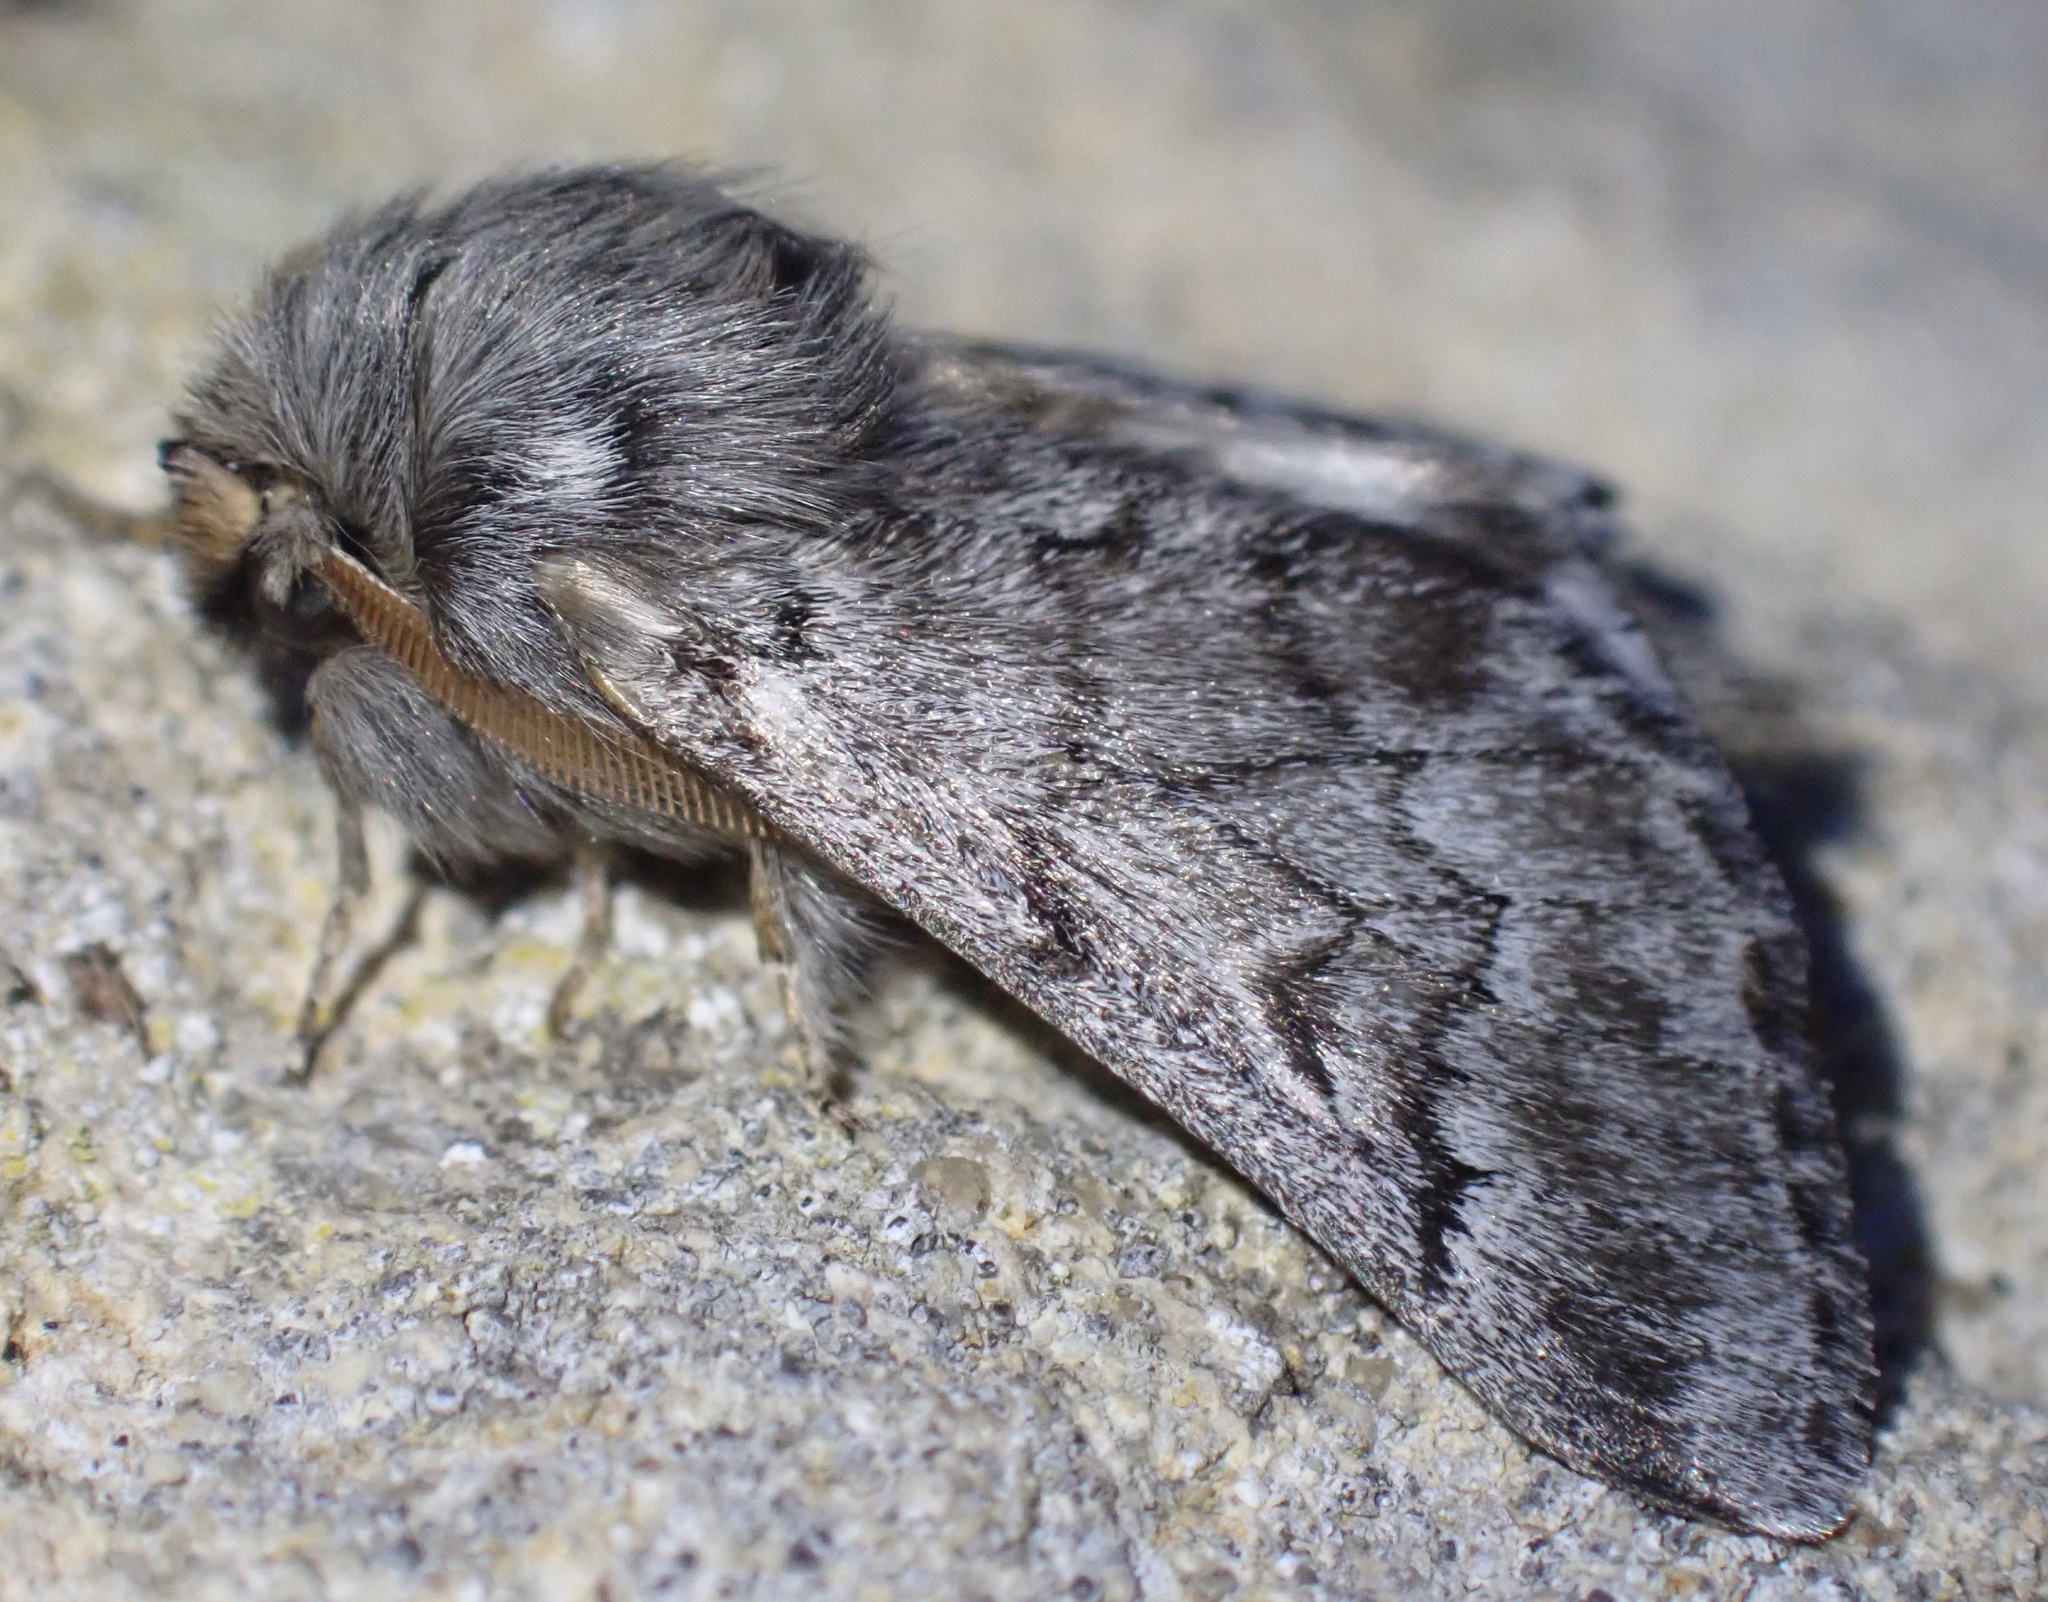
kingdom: Animalia
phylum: Arthropoda
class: Insecta
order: Lepidoptera
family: Notodontidae
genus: Thaumetopoea
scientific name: Thaumetopoea pityocampa
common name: Pine processionary
